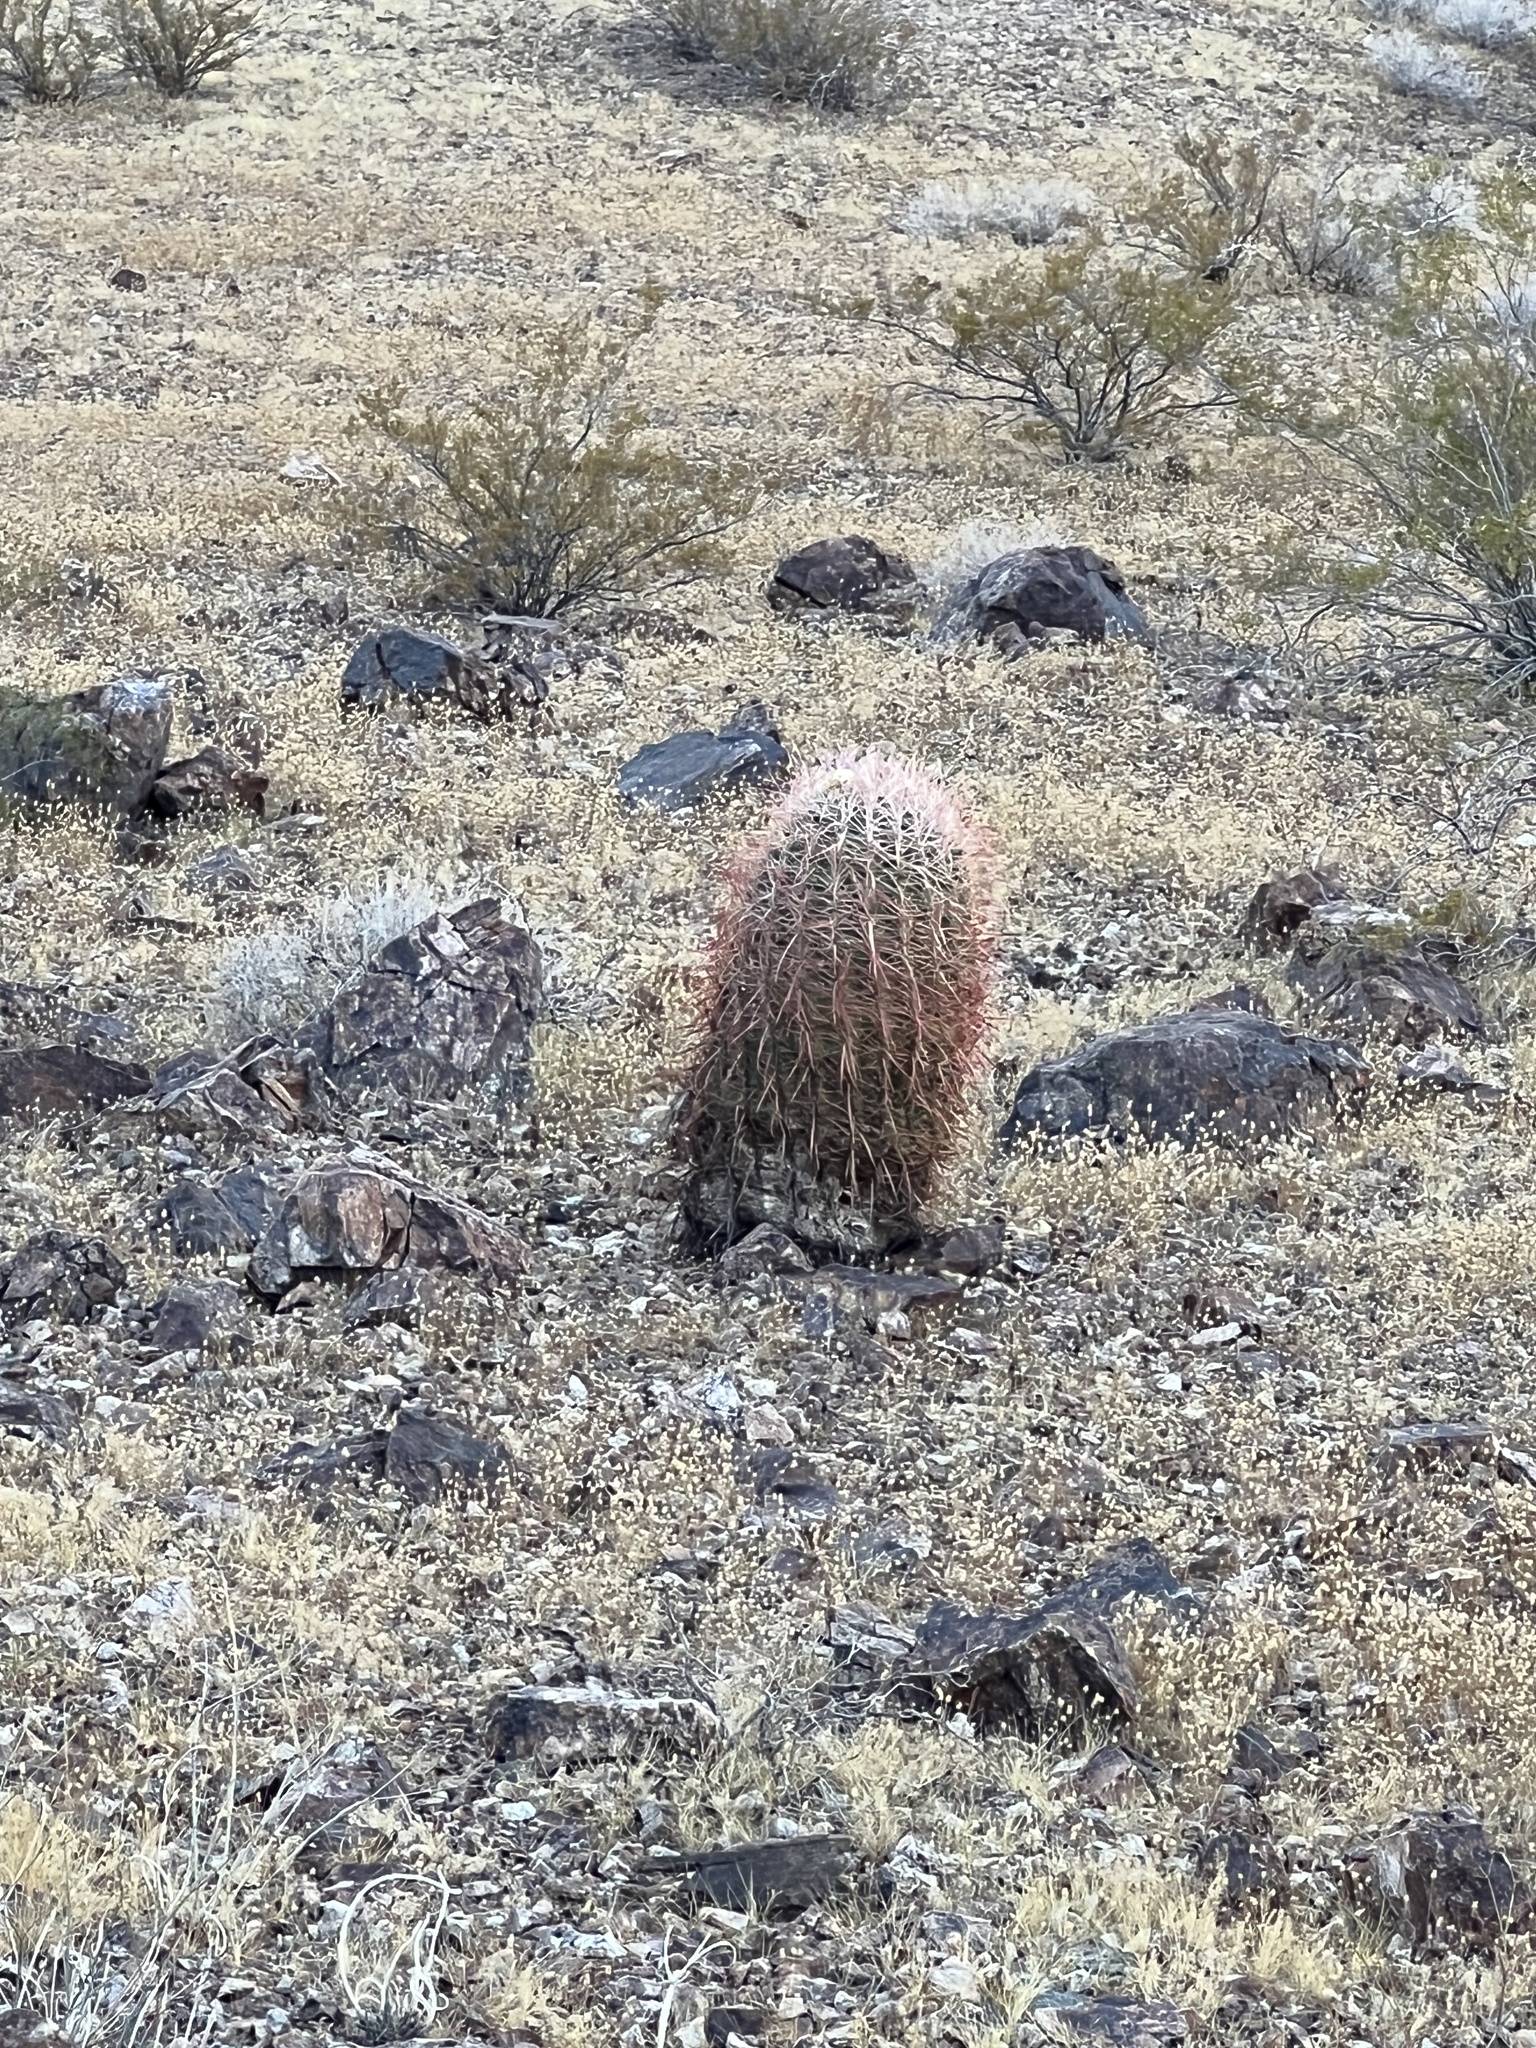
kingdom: Plantae
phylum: Tracheophyta
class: Magnoliopsida
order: Caryophyllales
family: Cactaceae
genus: Ferocactus
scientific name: Ferocactus cylindraceus
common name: California barrel cactus
